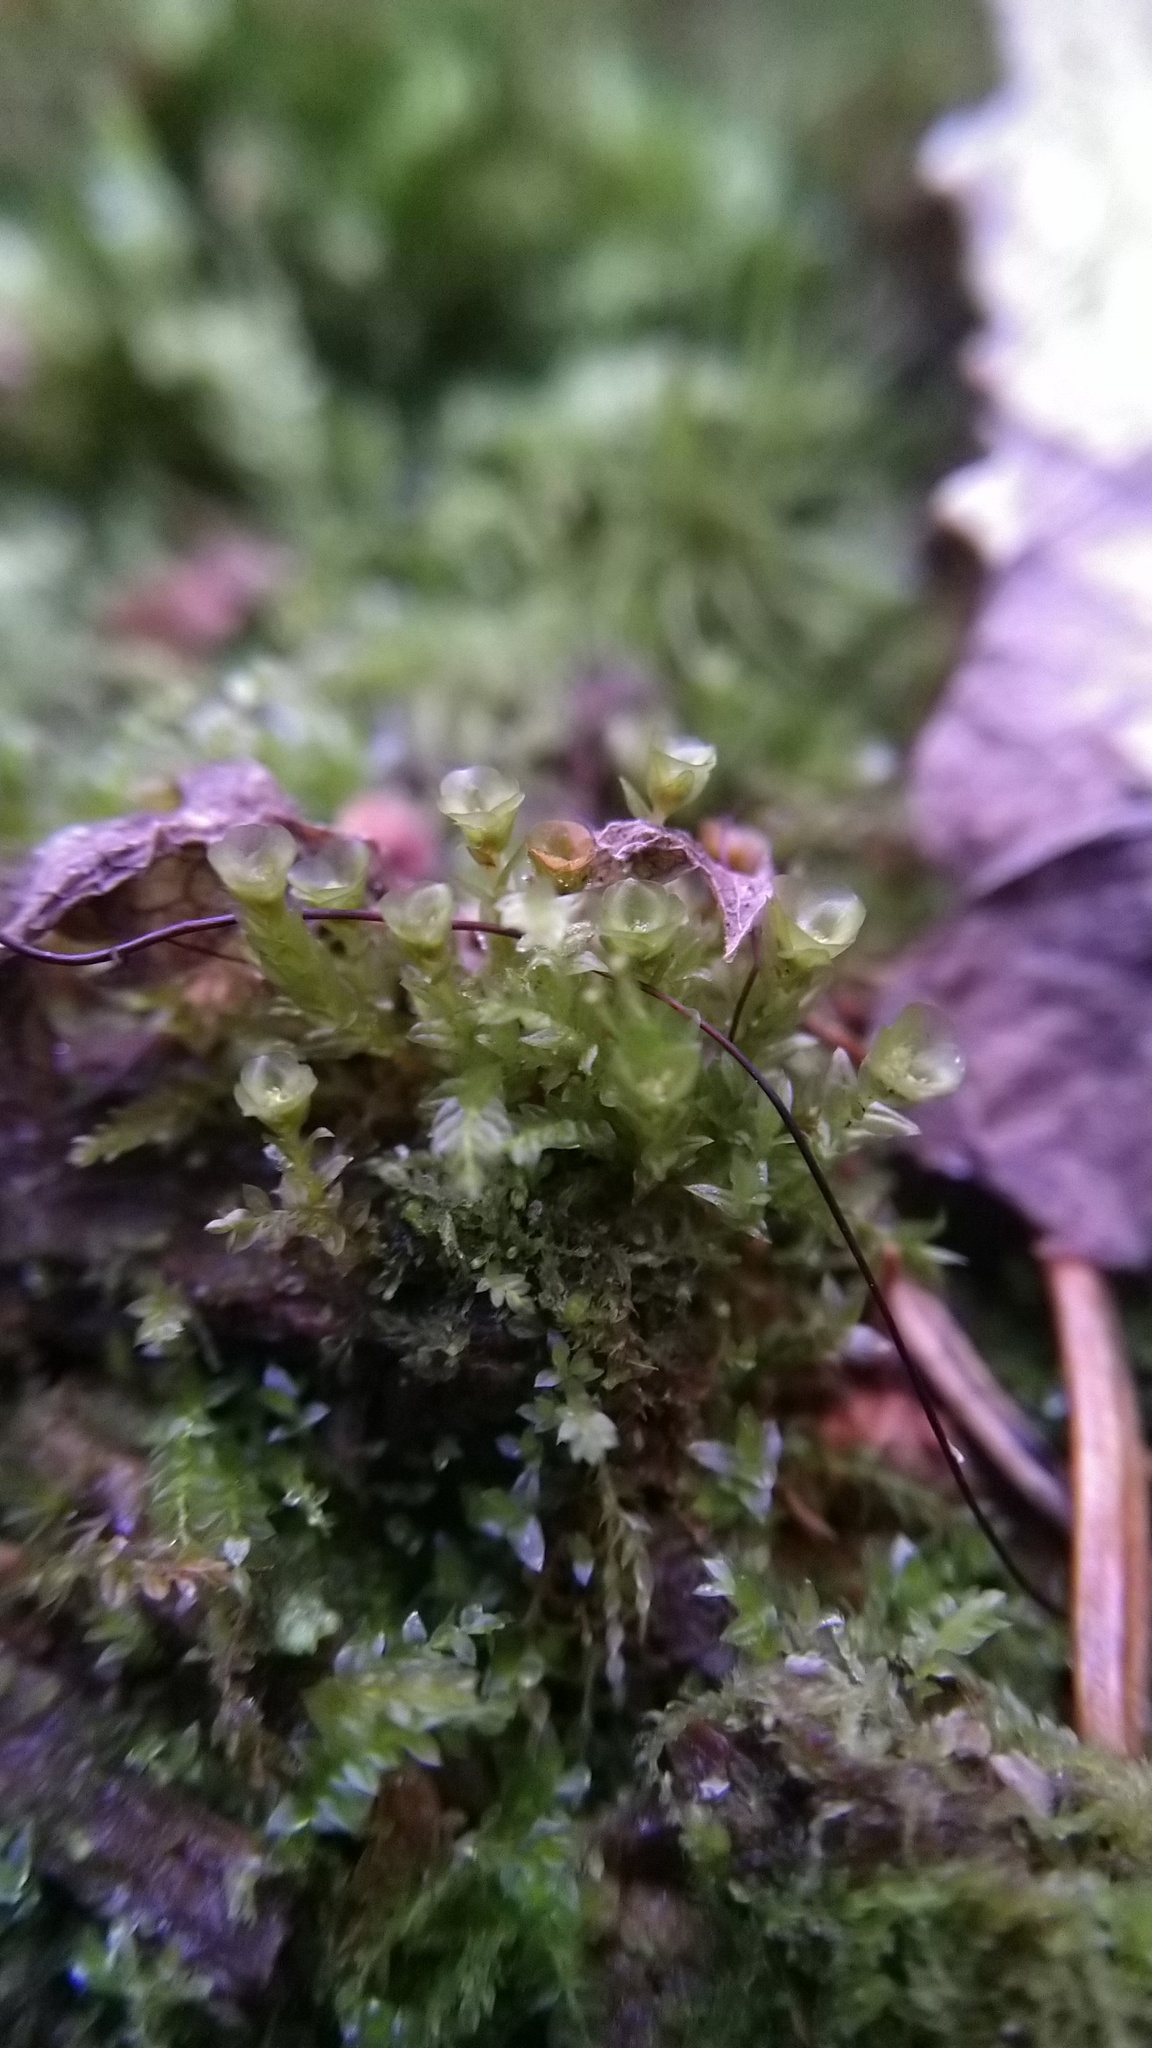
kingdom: Plantae
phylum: Bryophyta
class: Polytrichopsida
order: Tetraphidales
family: Tetraphidaceae
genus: Tetraphis
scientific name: Tetraphis pellucida
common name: Common four-toothed moss
